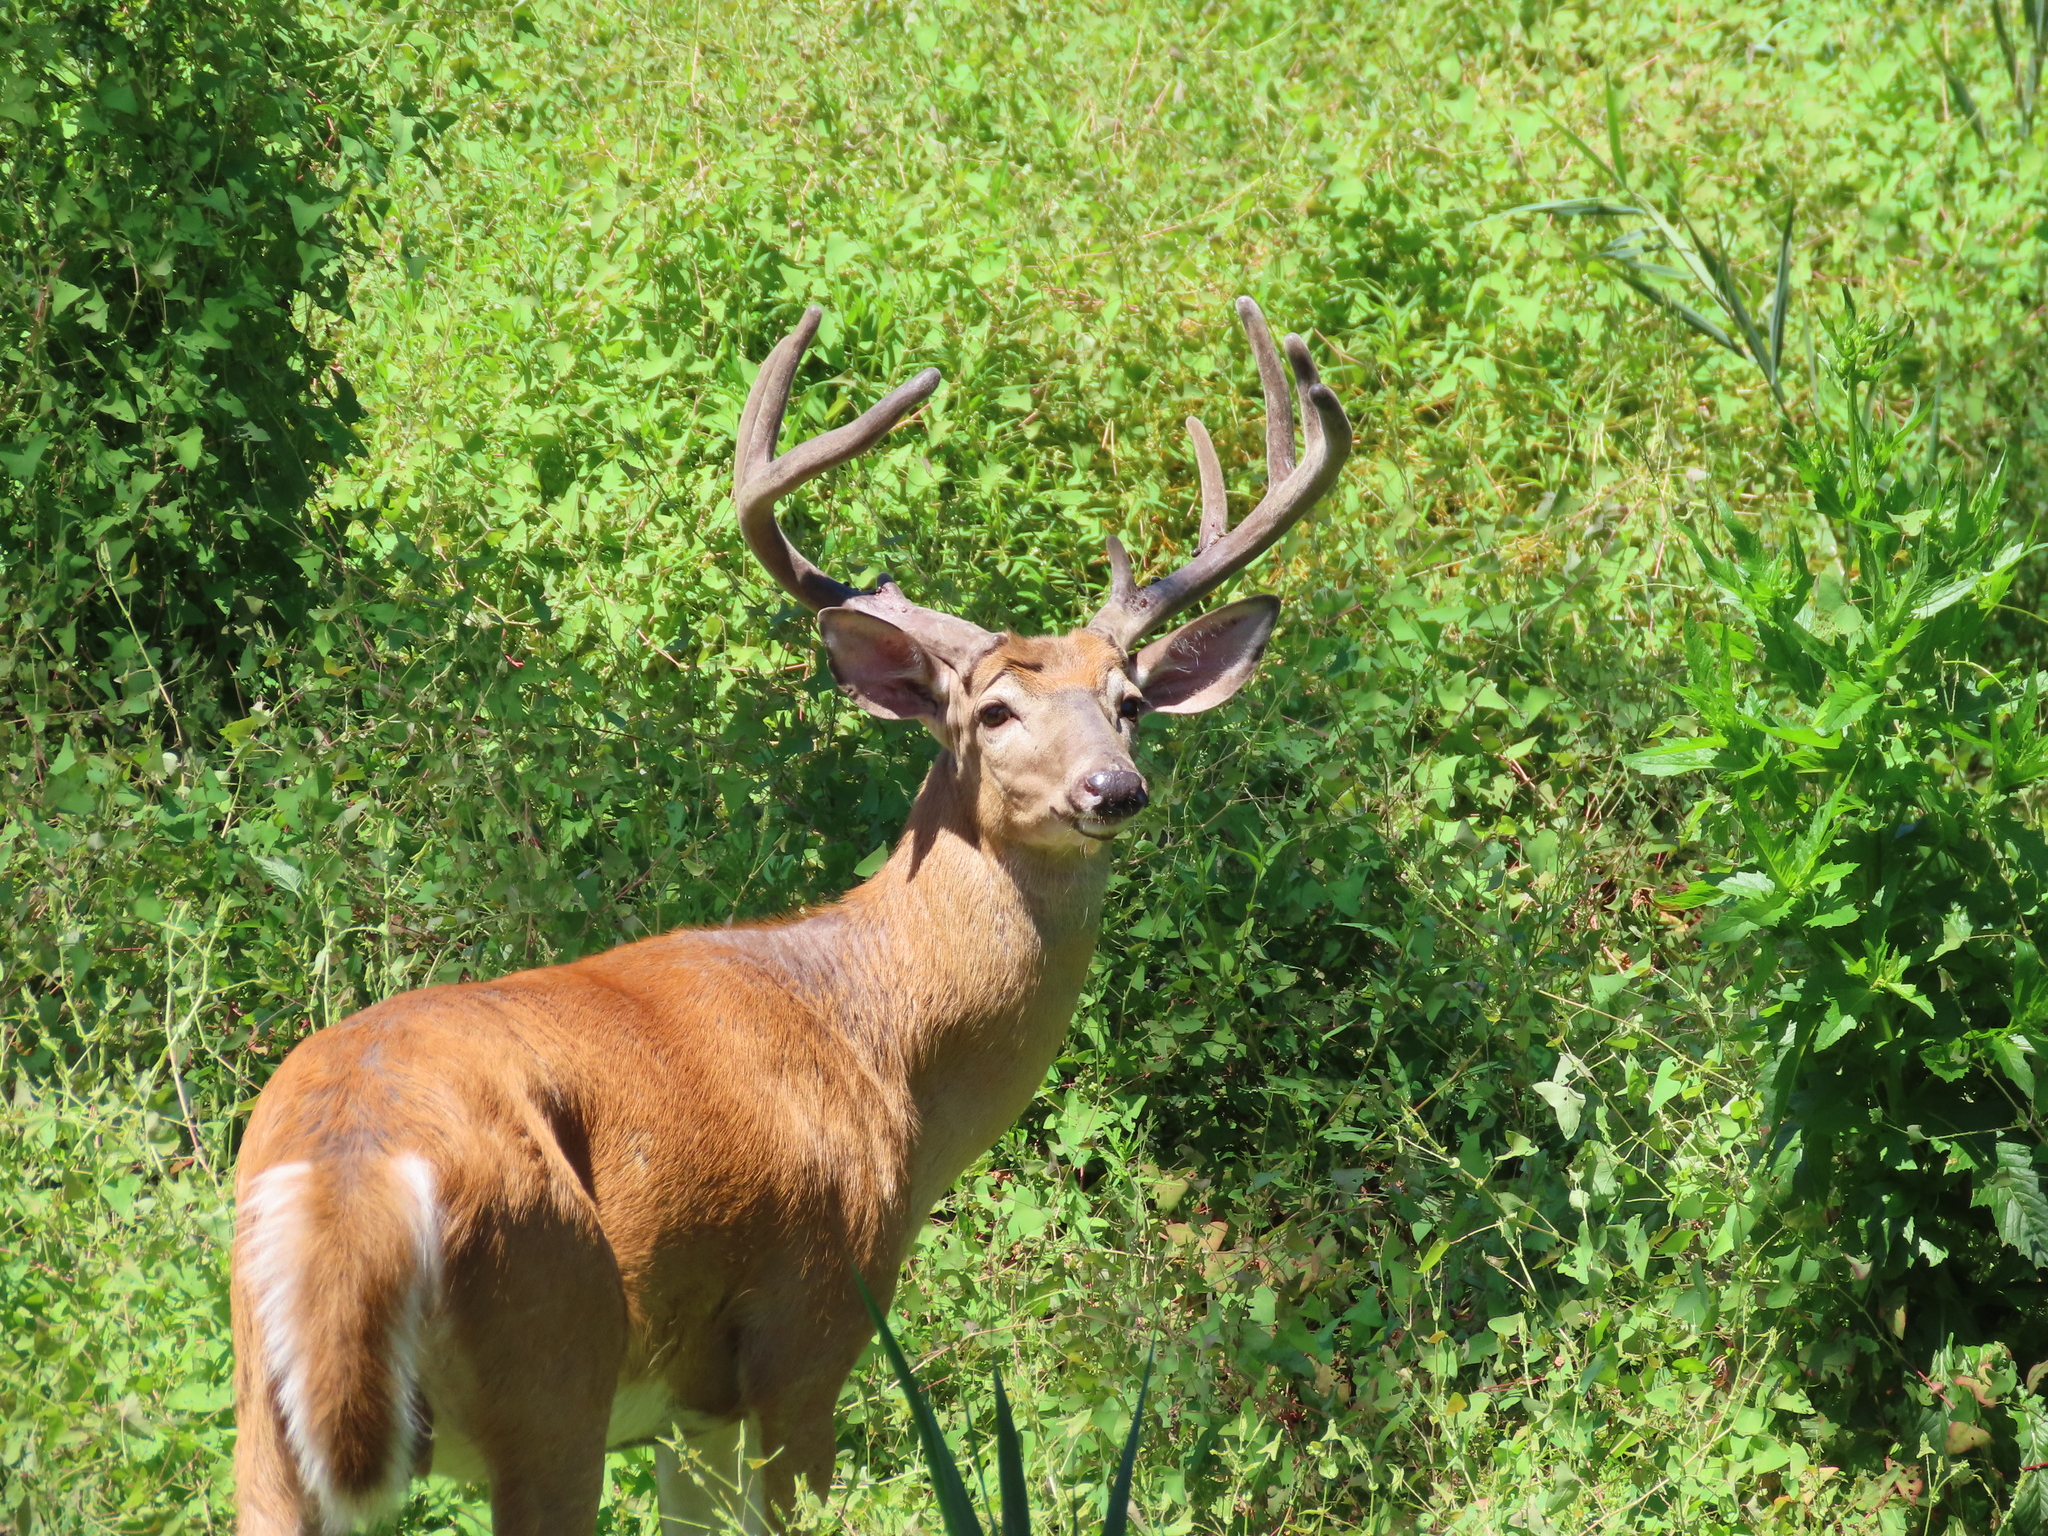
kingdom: Animalia
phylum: Chordata
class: Mammalia
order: Artiodactyla
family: Cervidae
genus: Odocoileus
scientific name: Odocoileus virginianus
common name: White-tailed deer
